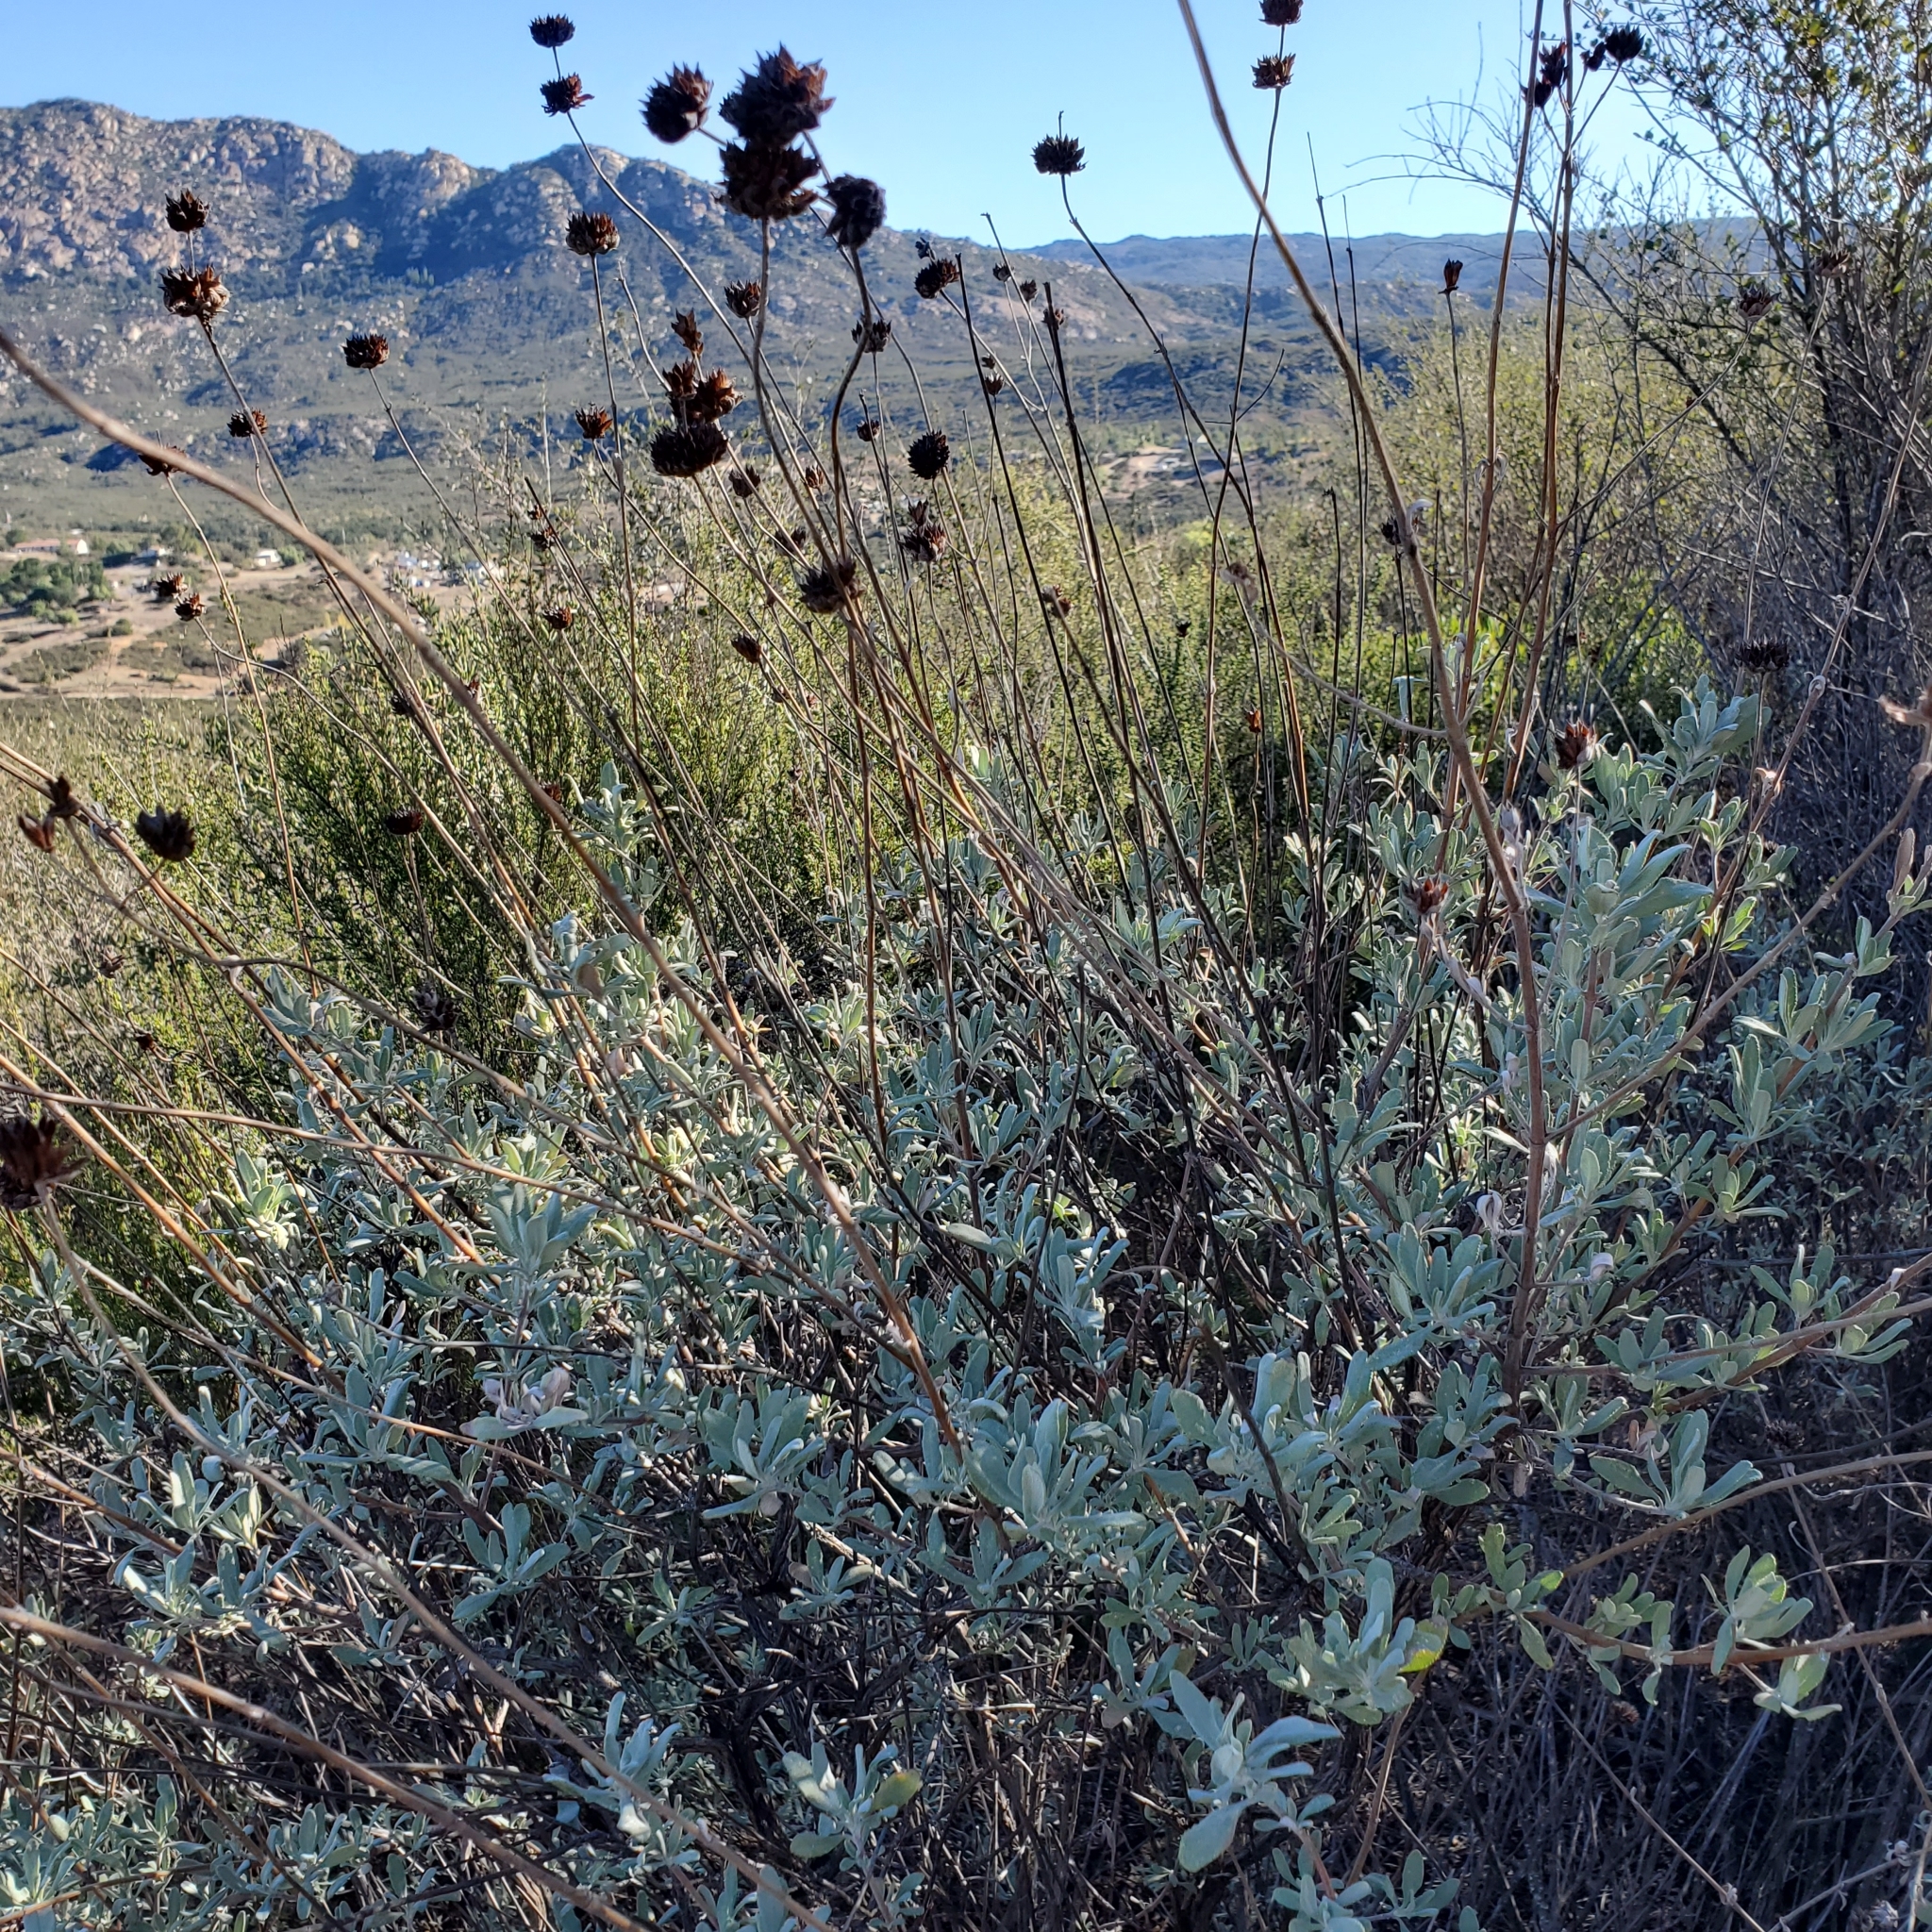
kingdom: Plantae
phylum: Tracheophyta
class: Magnoliopsida
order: Lamiales
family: Lamiaceae
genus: Salvia
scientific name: Salvia clevelandii
